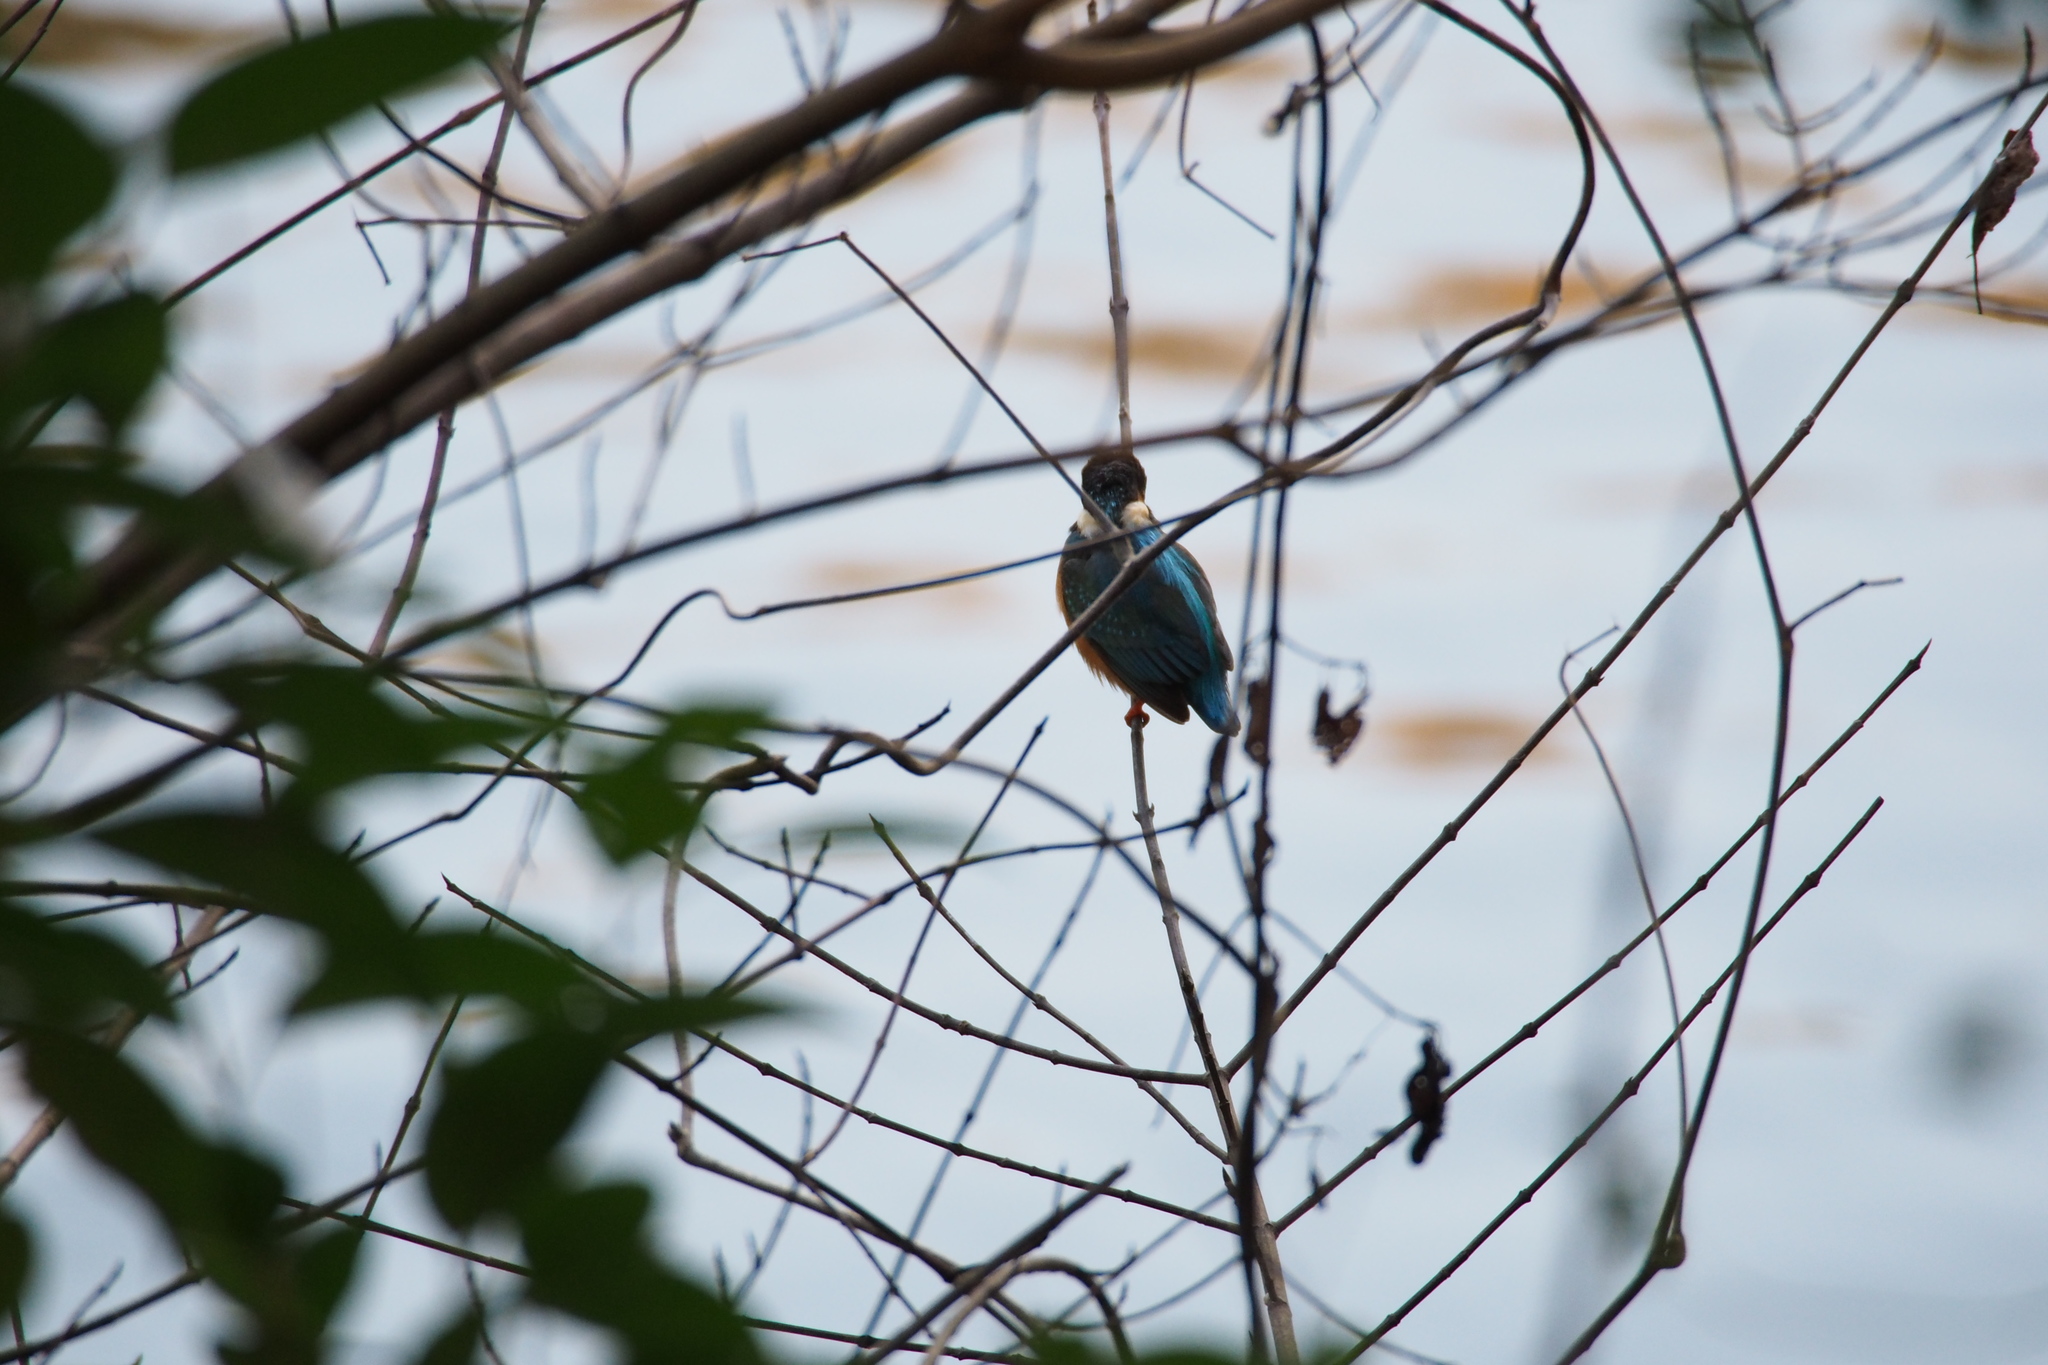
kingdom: Animalia
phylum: Chordata
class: Aves
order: Coraciiformes
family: Alcedinidae
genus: Alcedo
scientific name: Alcedo atthis
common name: Common kingfisher
